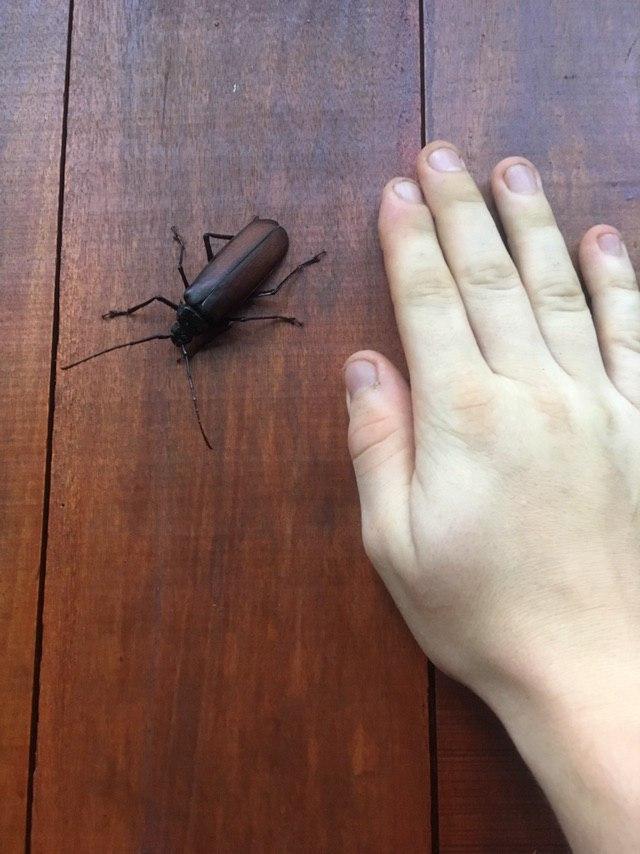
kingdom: Animalia
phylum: Arthropoda
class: Insecta
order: Coleoptera
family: Cerambycidae
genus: Macrotoma
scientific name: Macrotoma androyana
